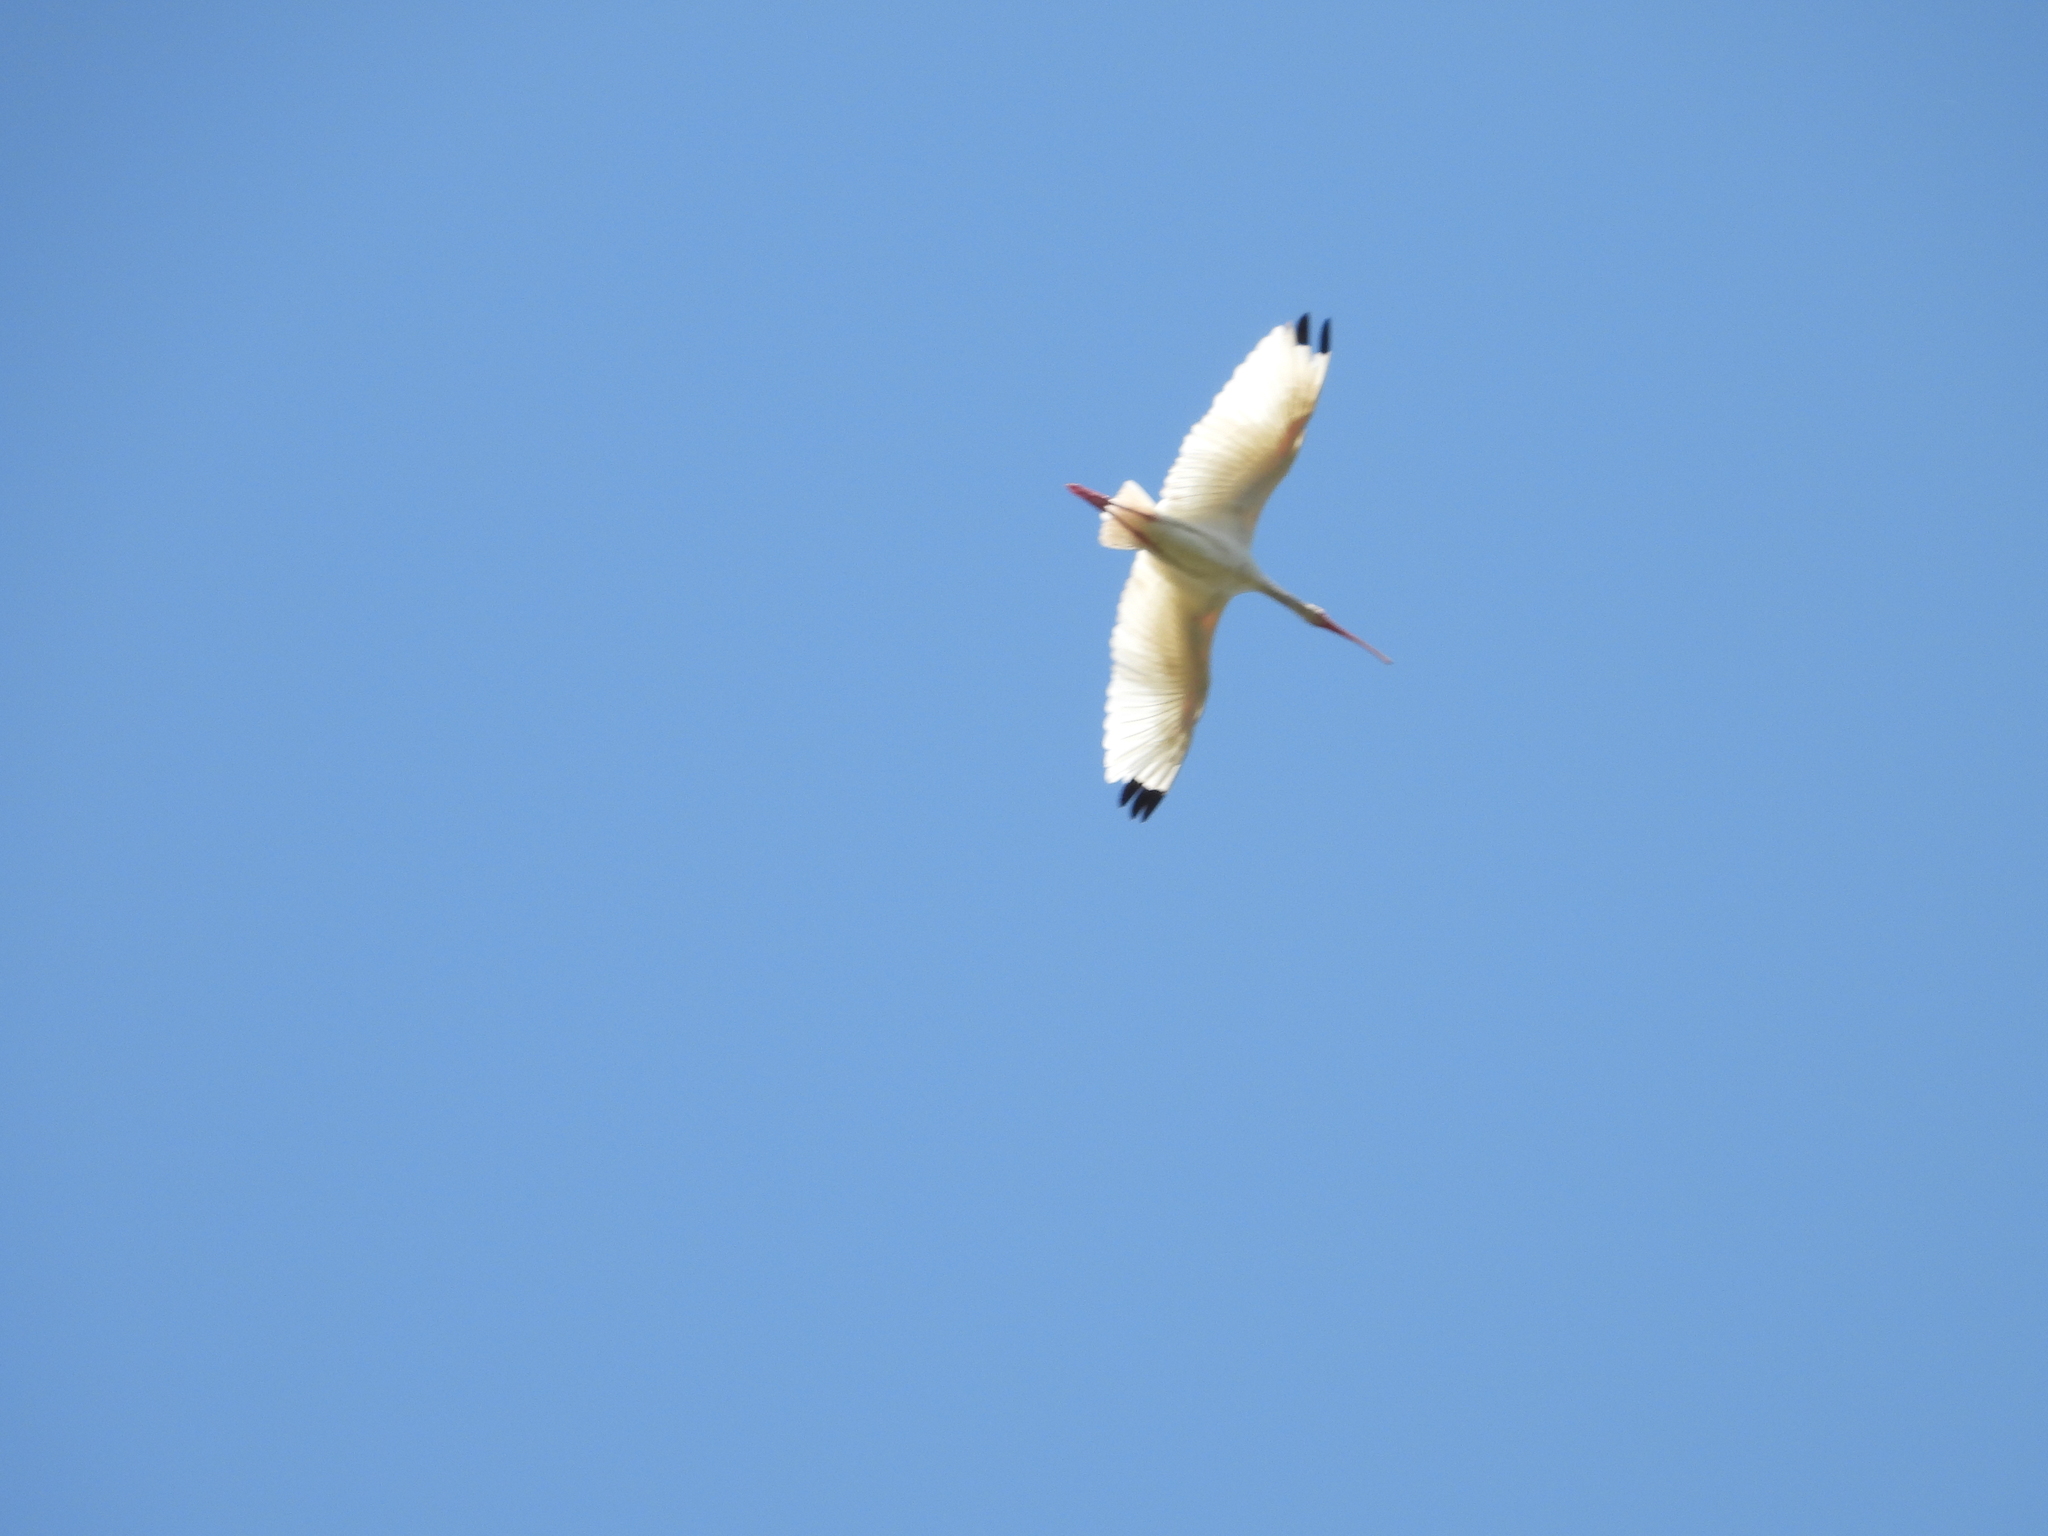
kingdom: Animalia
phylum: Chordata
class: Aves
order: Pelecaniformes
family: Threskiornithidae
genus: Eudocimus
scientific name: Eudocimus albus
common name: White ibis
